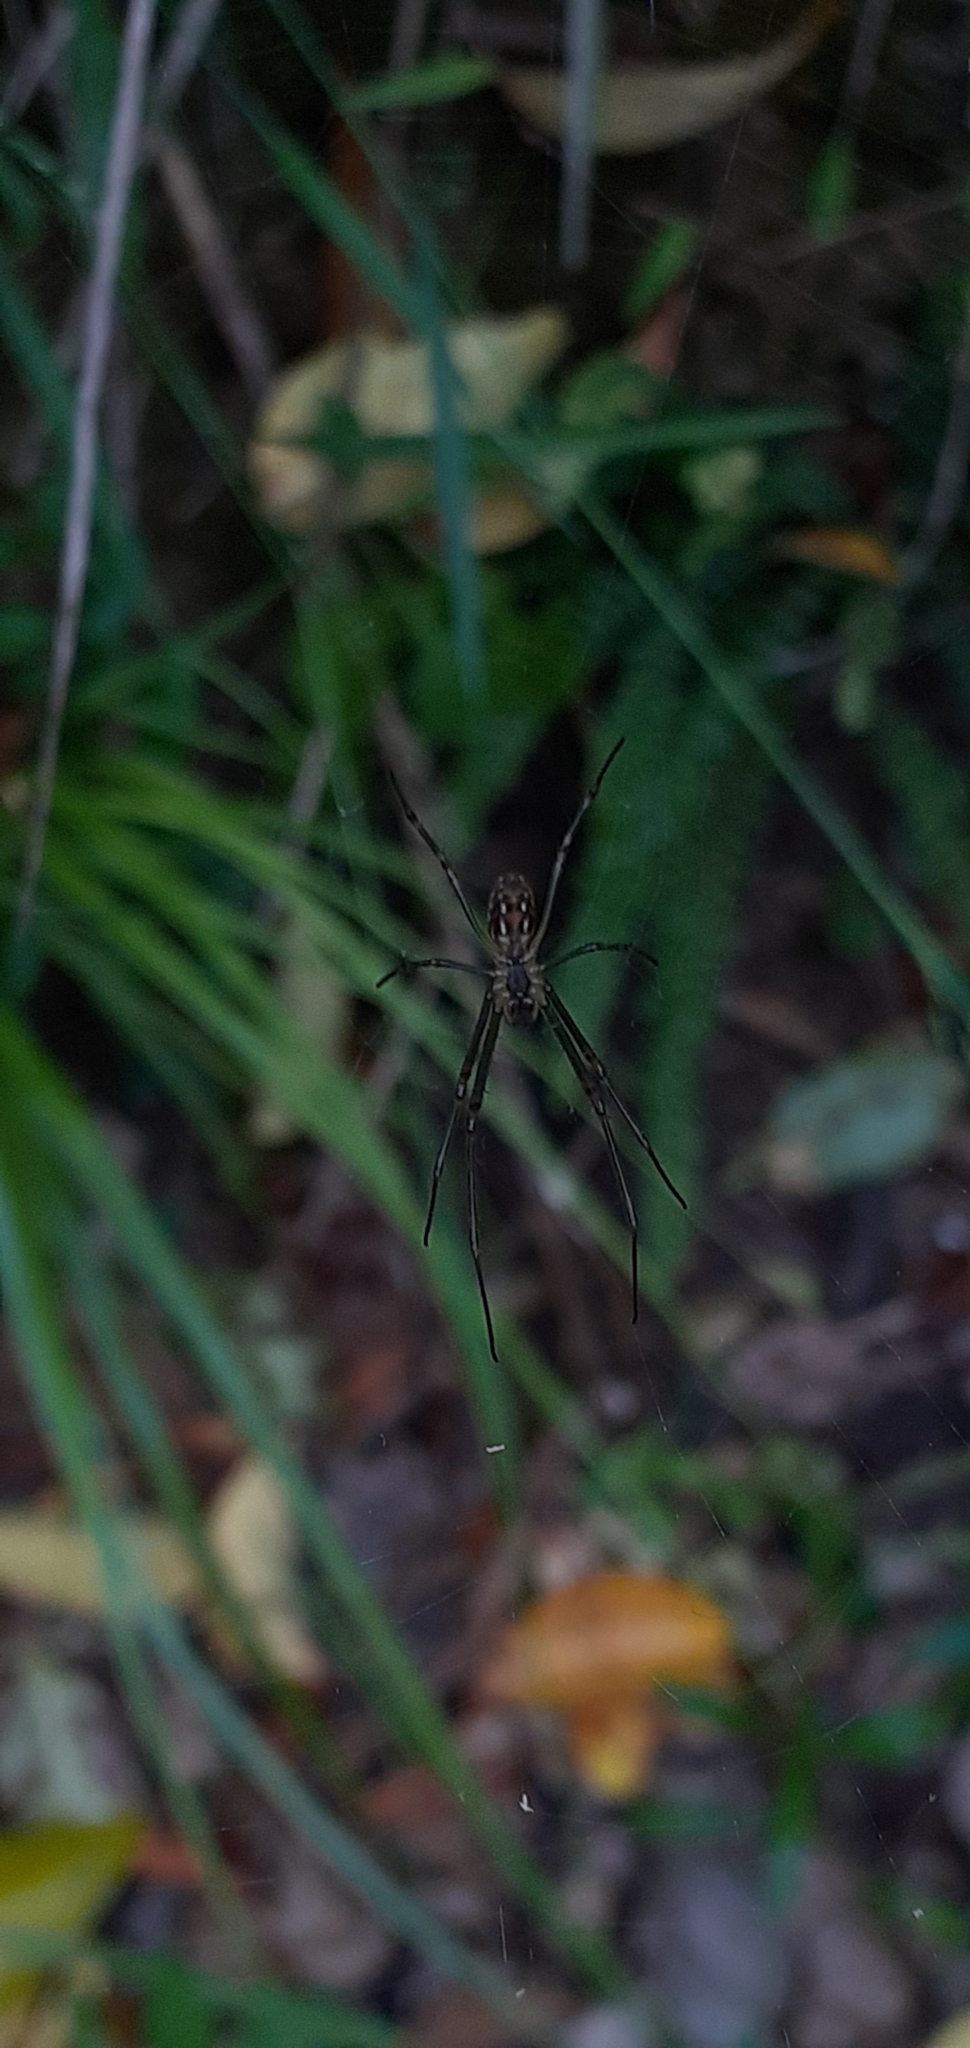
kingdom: Animalia
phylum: Arthropoda
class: Arachnida
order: Araneae
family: Tetragnathidae
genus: Leucauge
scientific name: Leucauge dromedaria
